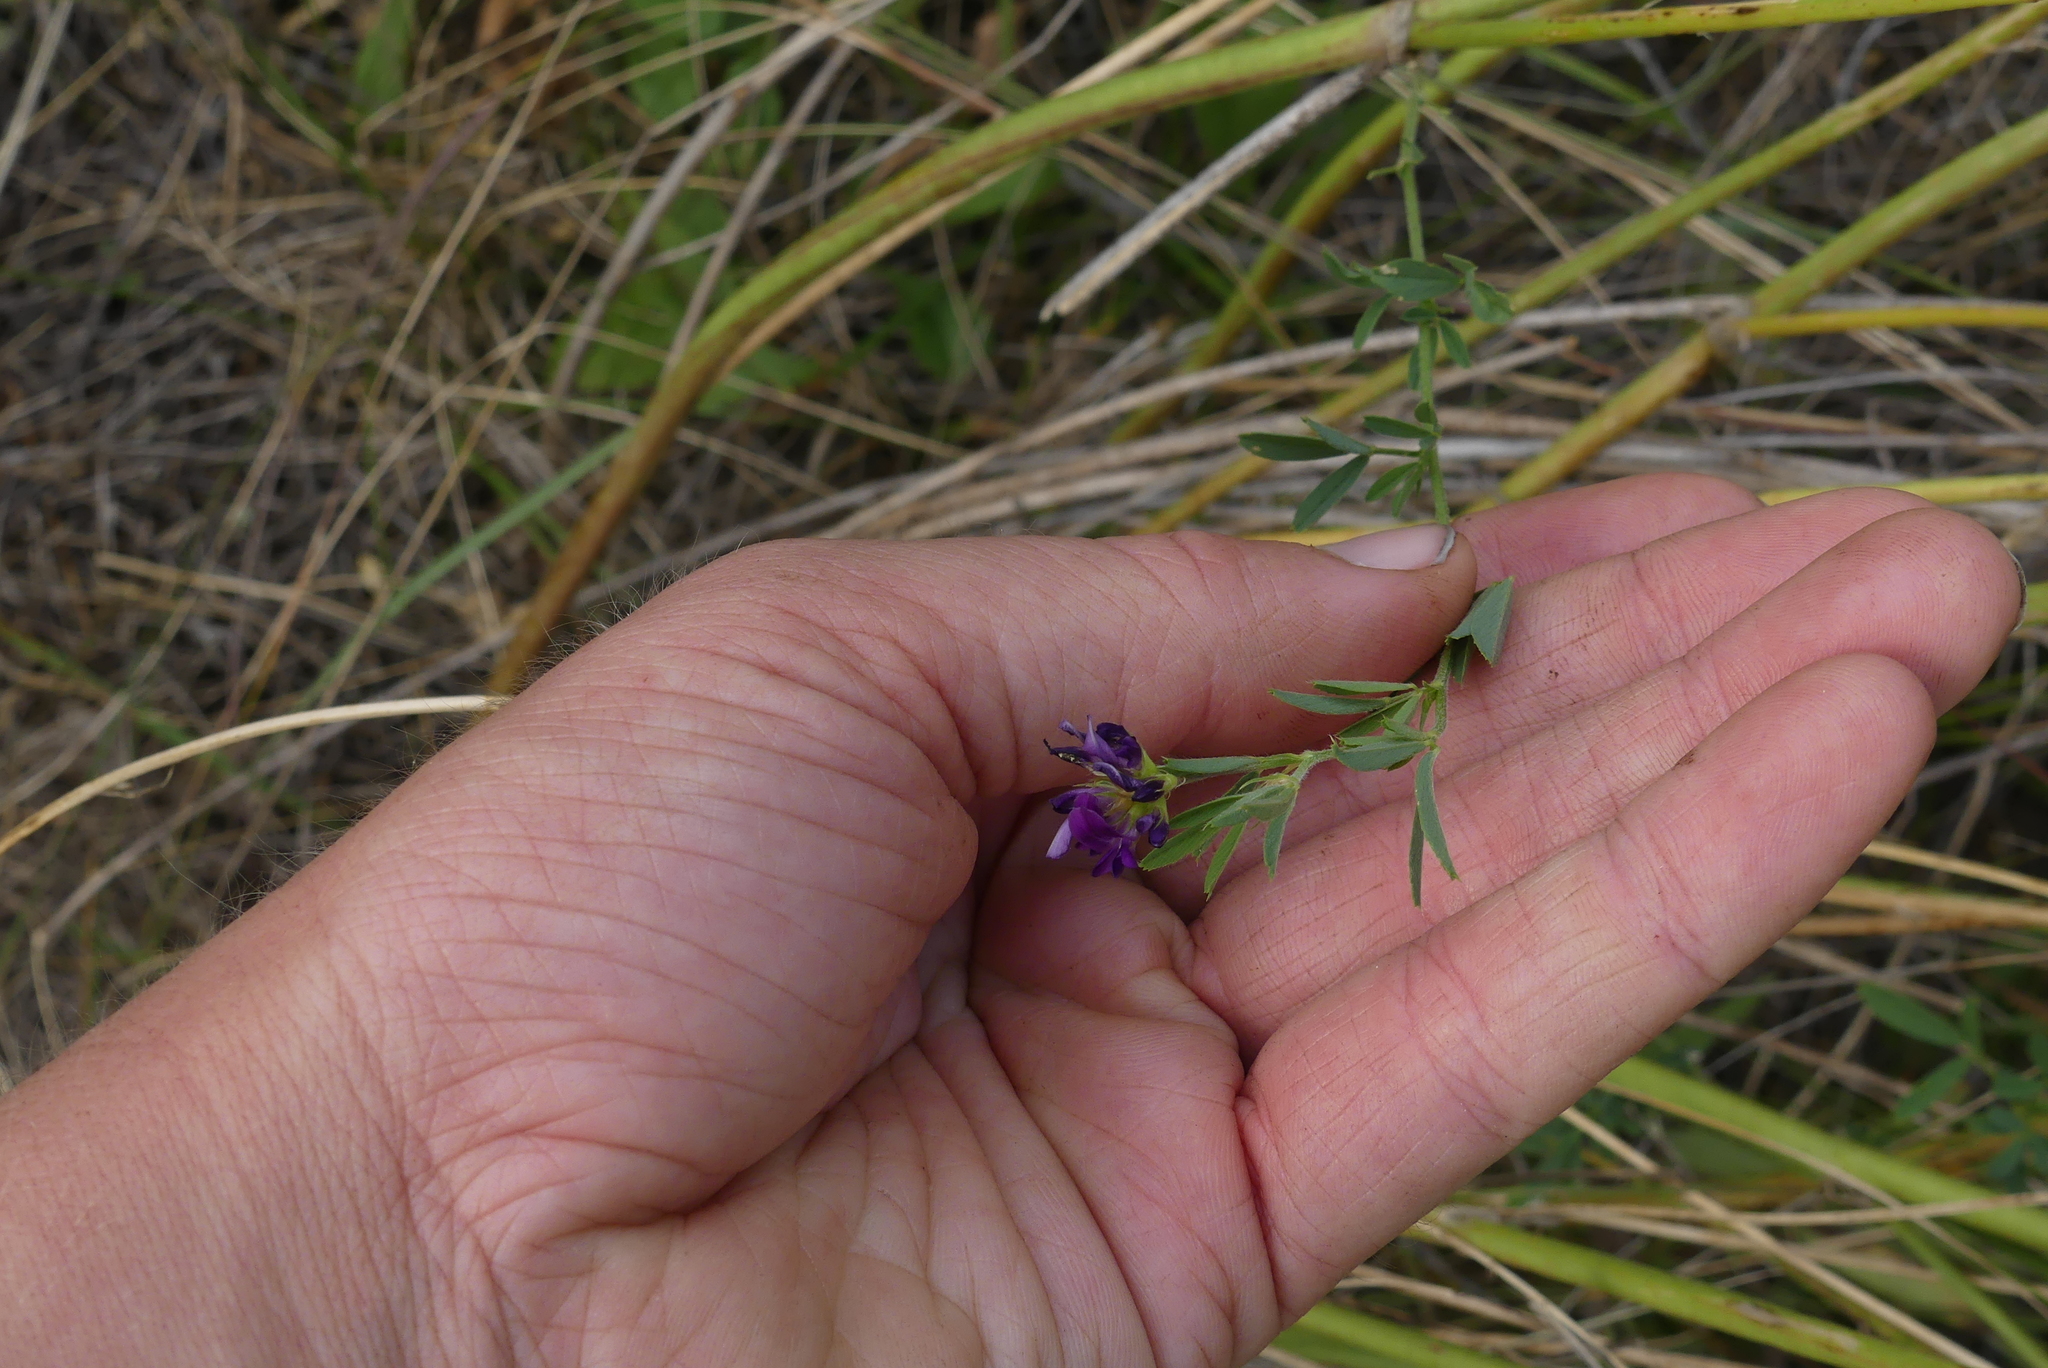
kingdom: Plantae
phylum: Tracheophyta
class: Magnoliopsida
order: Fabales
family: Fabaceae
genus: Medicago
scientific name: Medicago sativa
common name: Alfalfa
